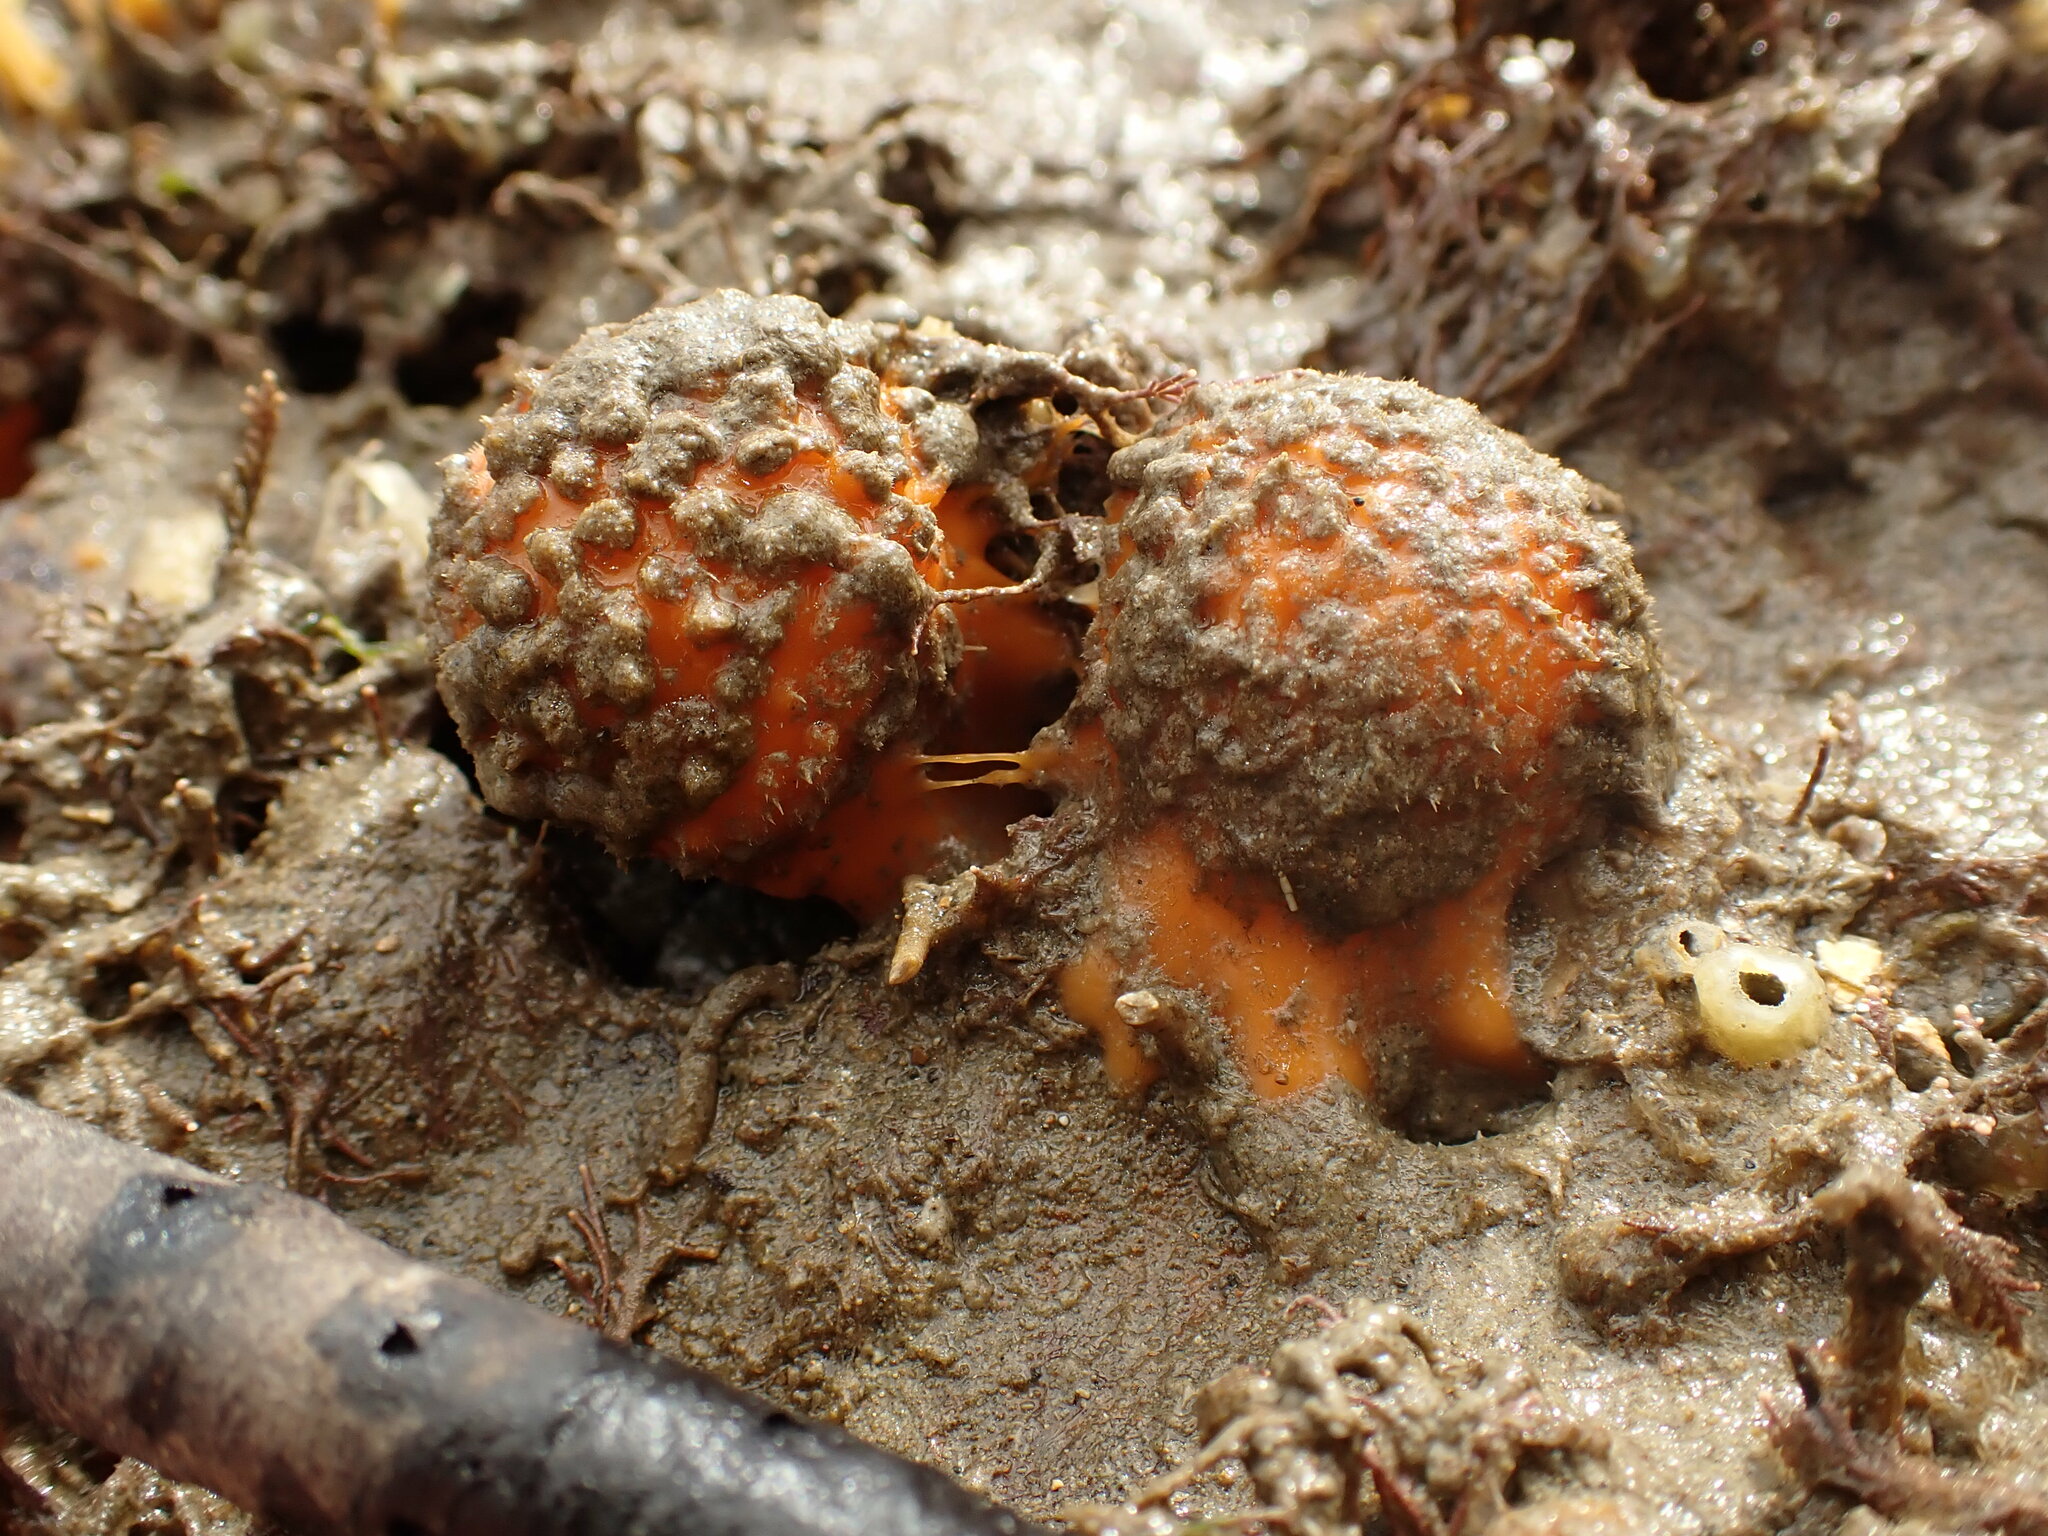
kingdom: Animalia
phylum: Porifera
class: Demospongiae
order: Tethyida
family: Tethyidae
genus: Tethya
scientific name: Tethya burtoni
